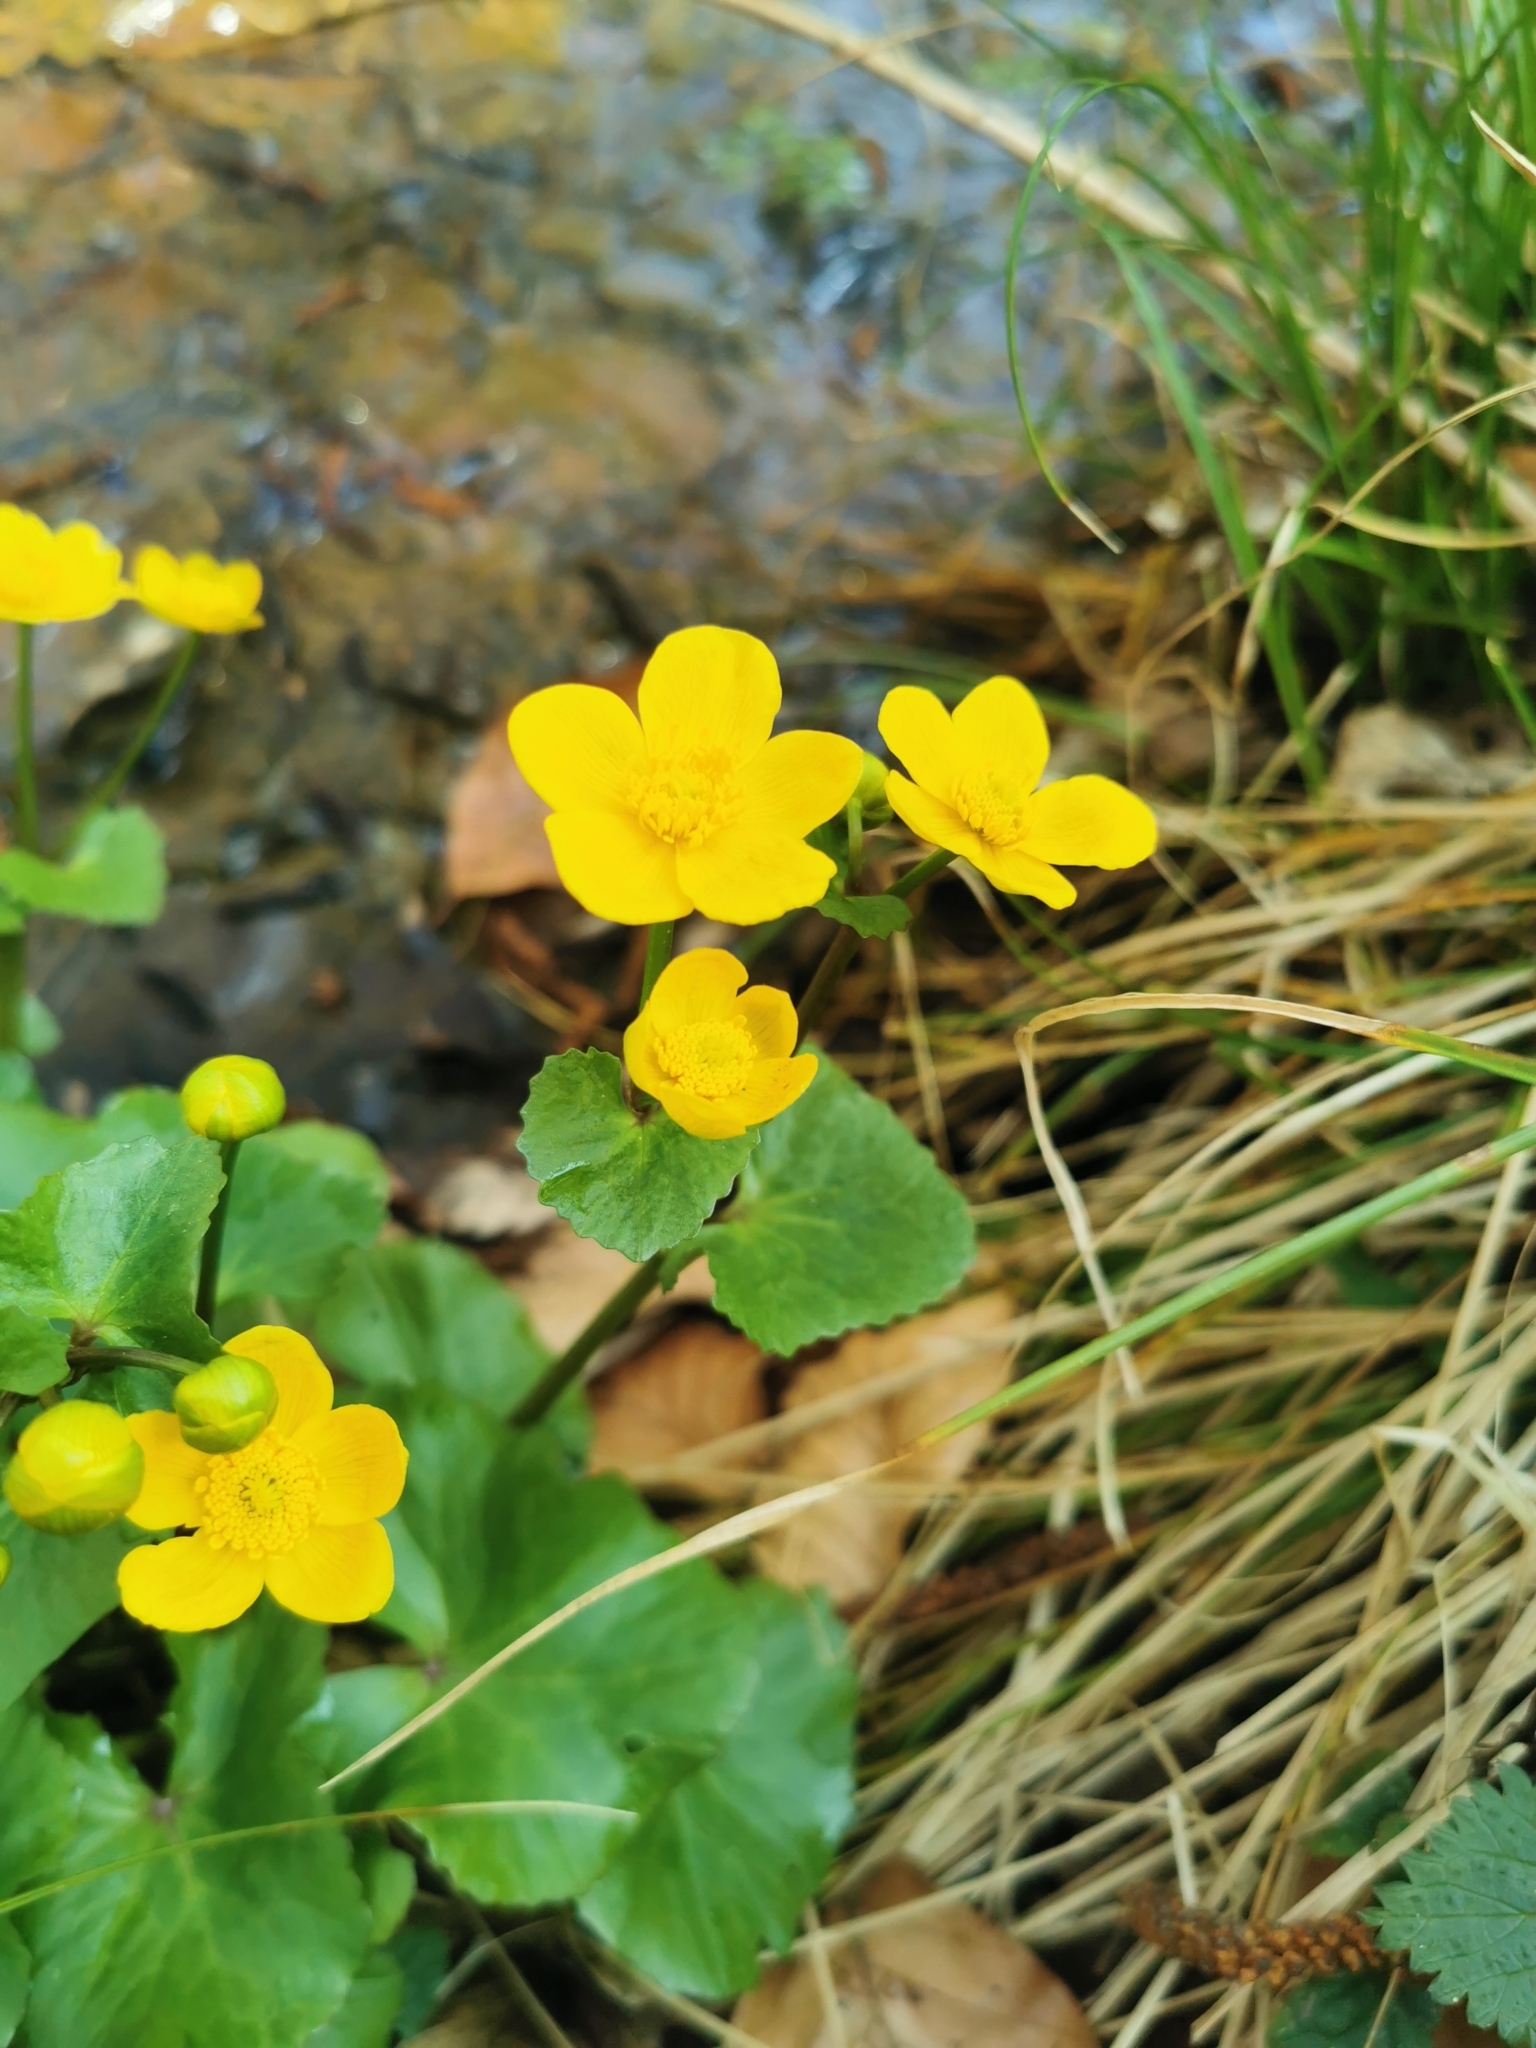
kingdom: Plantae
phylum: Tracheophyta
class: Magnoliopsida
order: Ranunculales
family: Ranunculaceae
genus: Caltha
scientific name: Caltha palustris
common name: Marsh marigold
